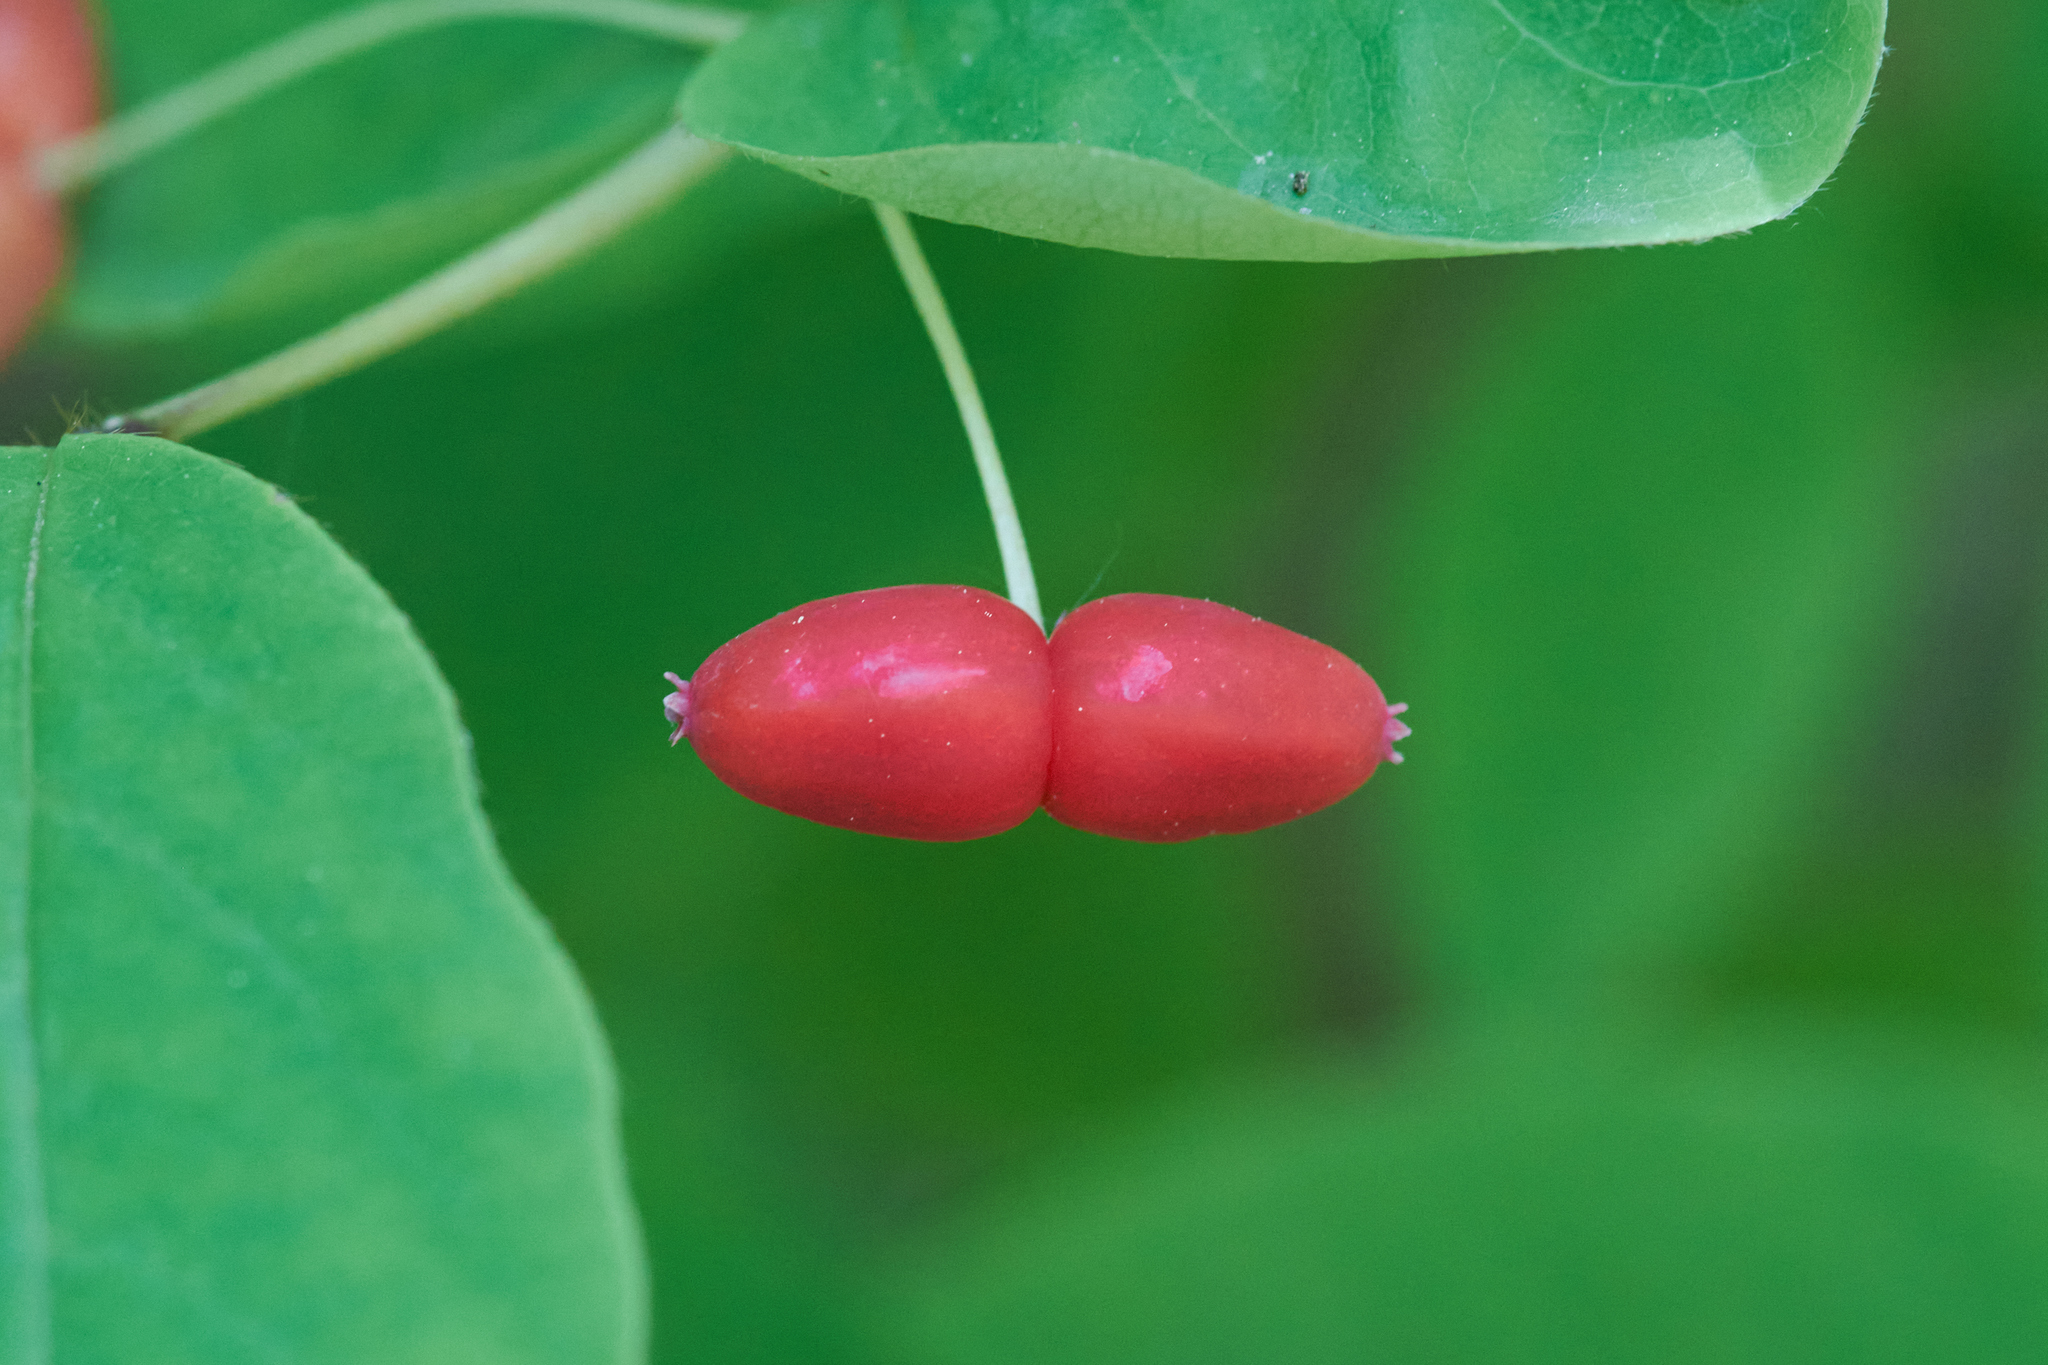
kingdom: Plantae
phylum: Tracheophyta
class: Magnoliopsida
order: Dipsacales
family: Caprifoliaceae
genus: Lonicera
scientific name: Lonicera canadensis
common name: American fly-honeysuckle
